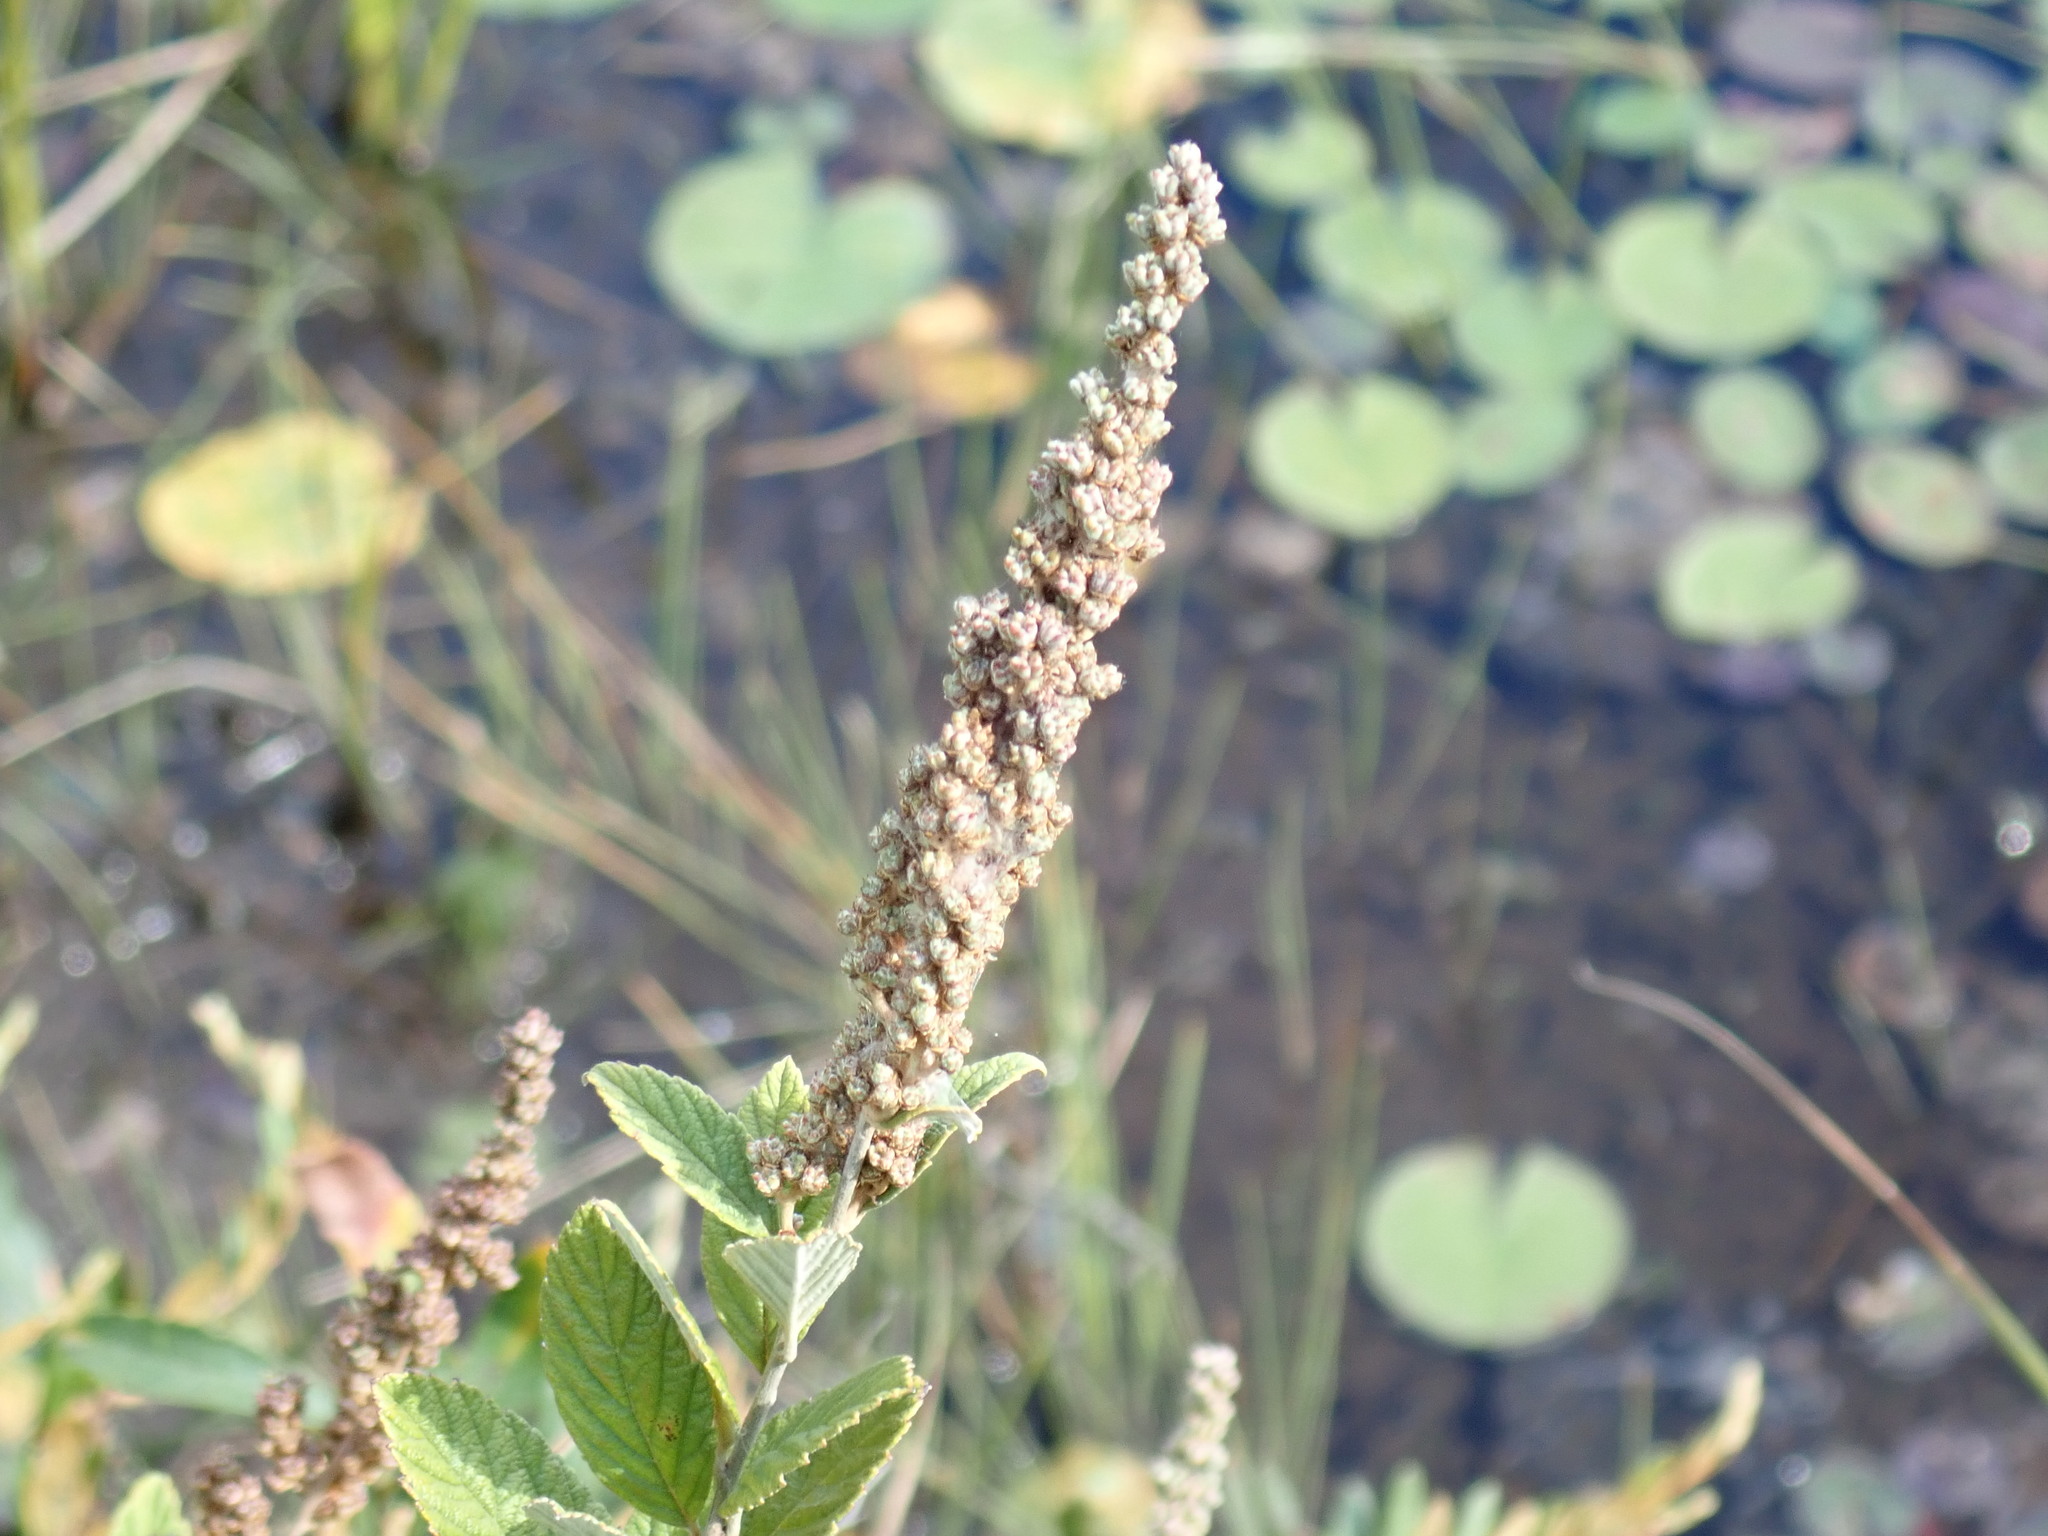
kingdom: Plantae
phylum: Tracheophyta
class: Magnoliopsida
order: Rosales
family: Rosaceae
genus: Spiraea
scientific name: Spiraea tomentosa
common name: Hardhack
